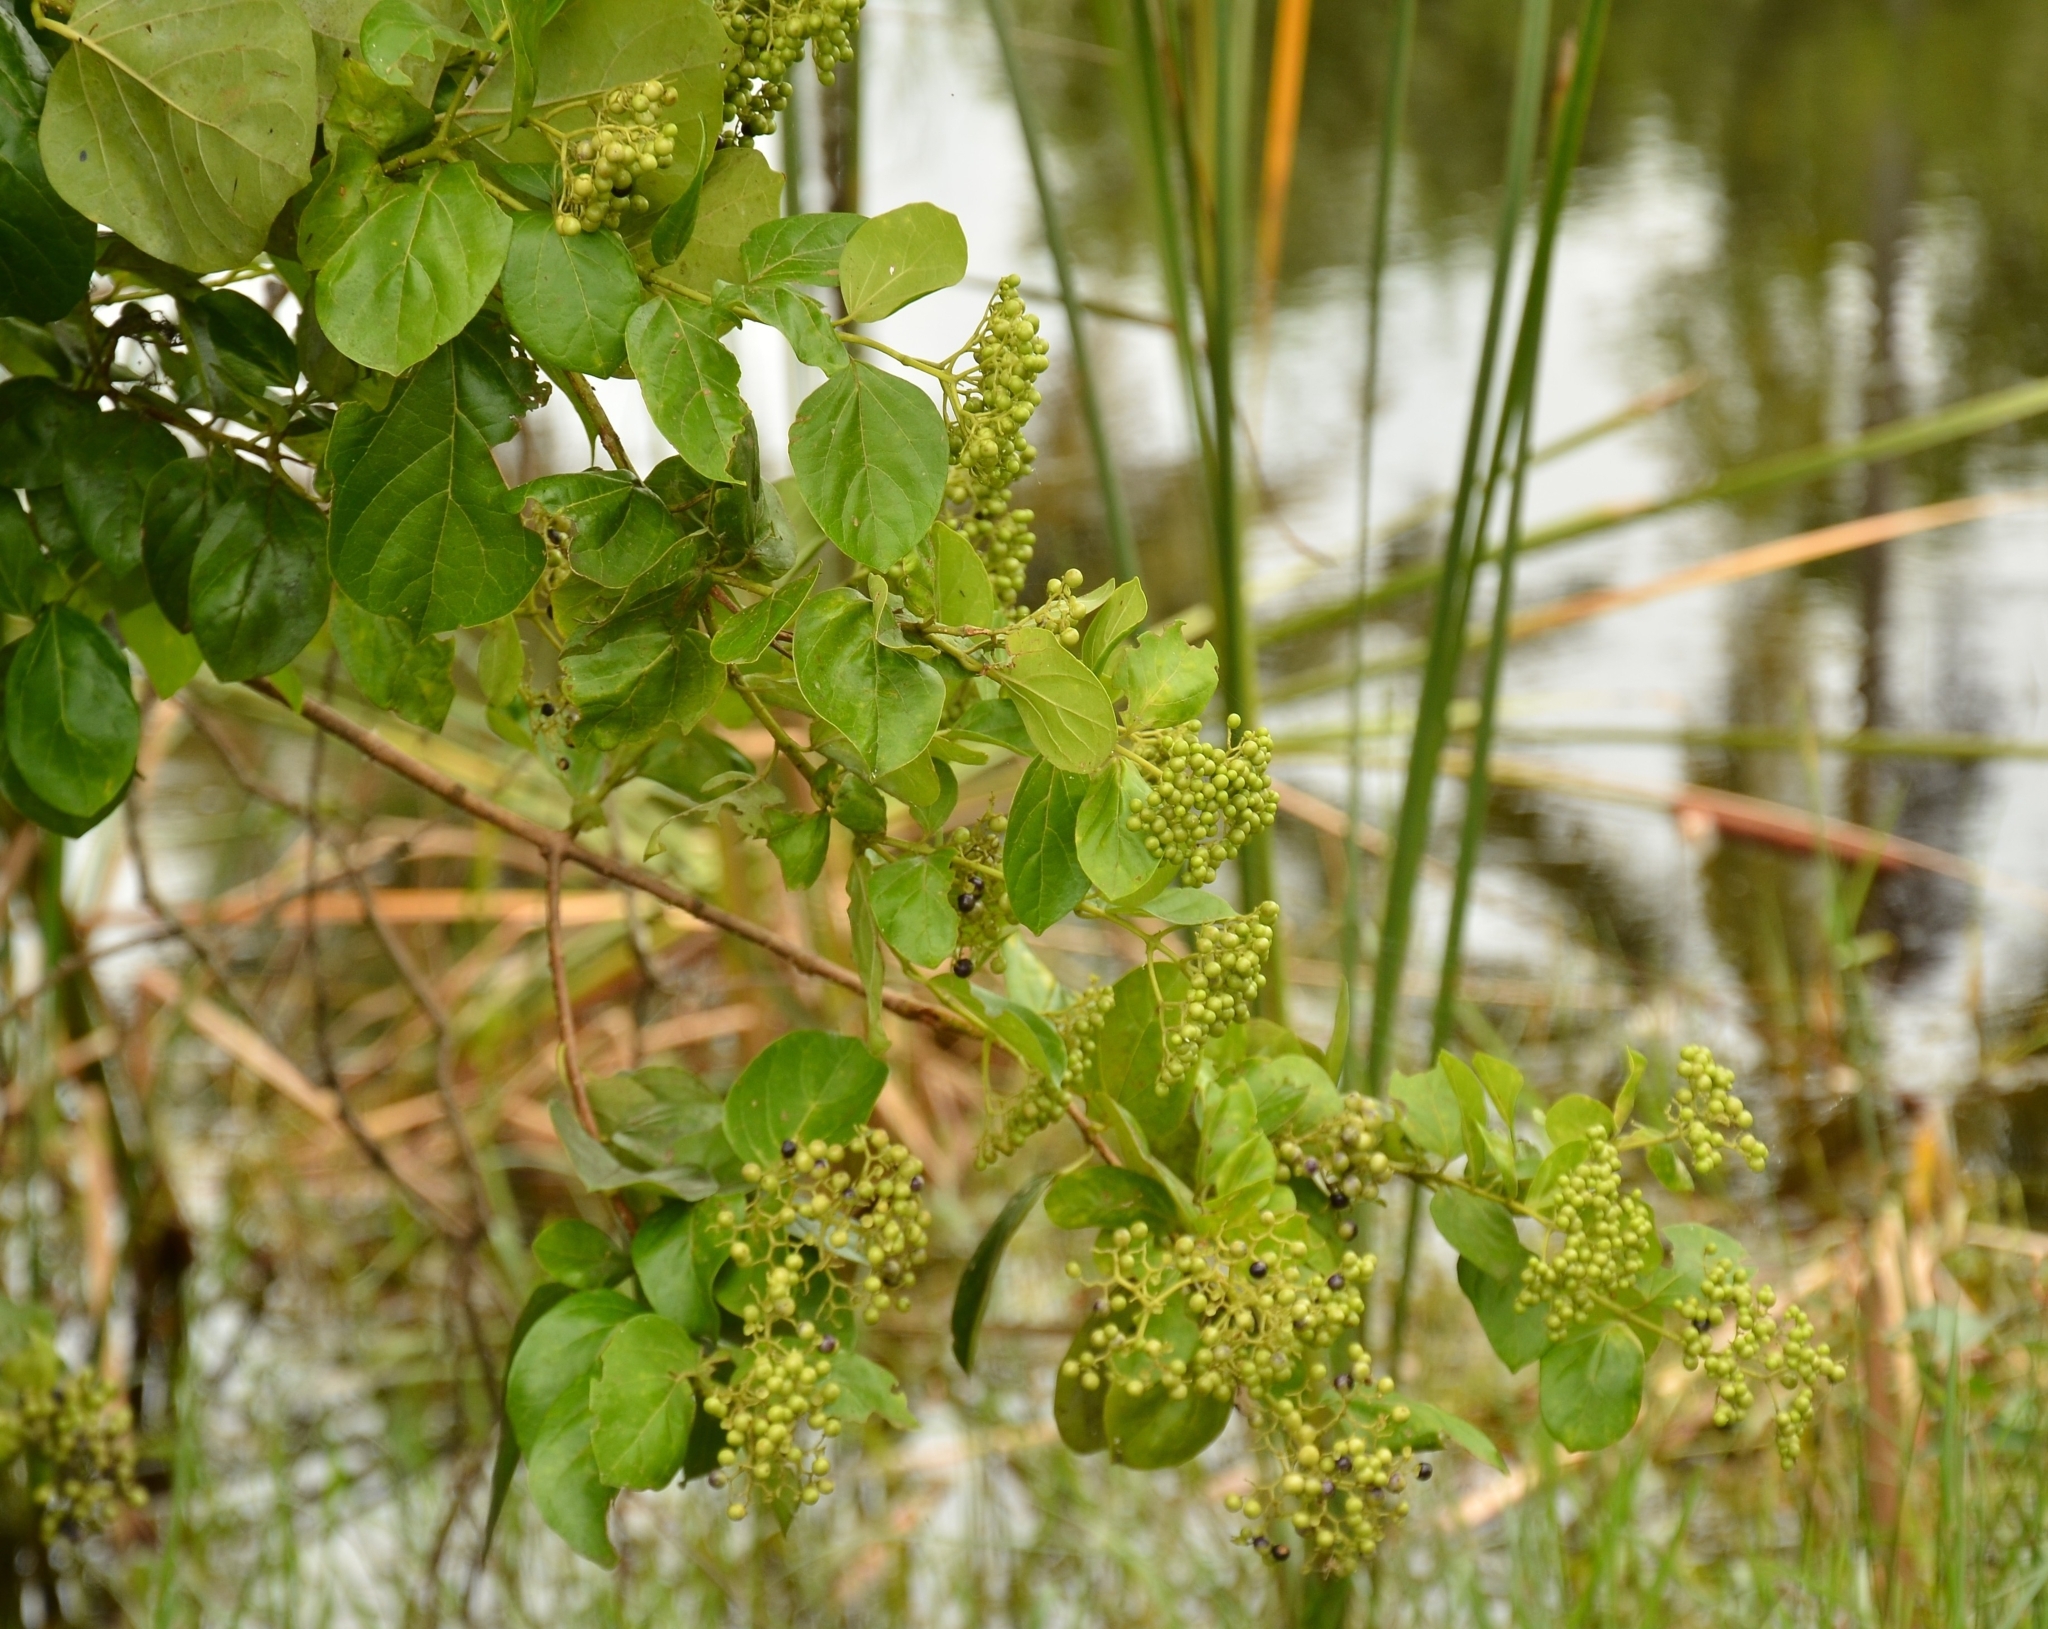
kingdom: Plantae
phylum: Tracheophyta
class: Magnoliopsida
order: Lamiales
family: Lamiaceae
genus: Premna
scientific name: Premna serratifolia
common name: Bastard guelder
